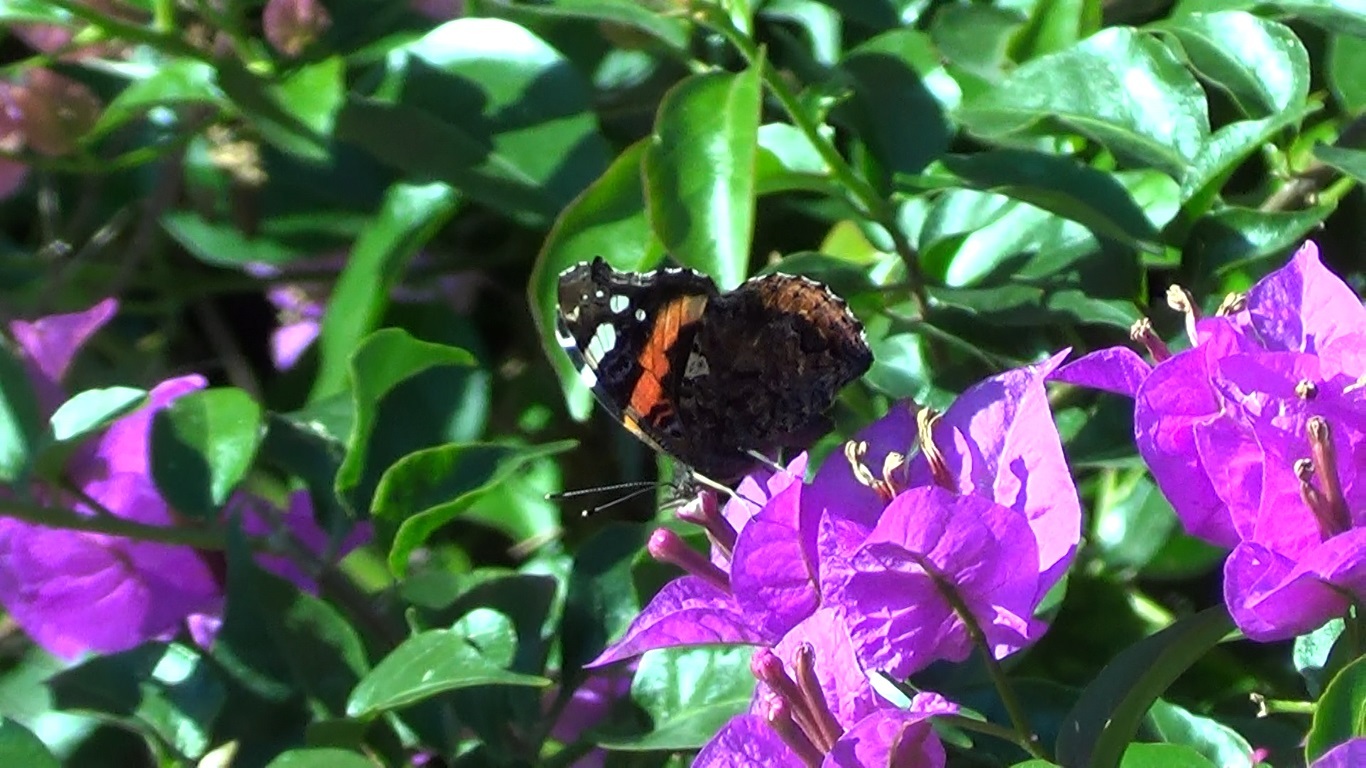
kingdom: Animalia
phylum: Arthropoda
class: Insecta
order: Lepidoptera
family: Nymphalidae
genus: Vanessa
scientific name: Vanessa atalanta
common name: Red admiral
